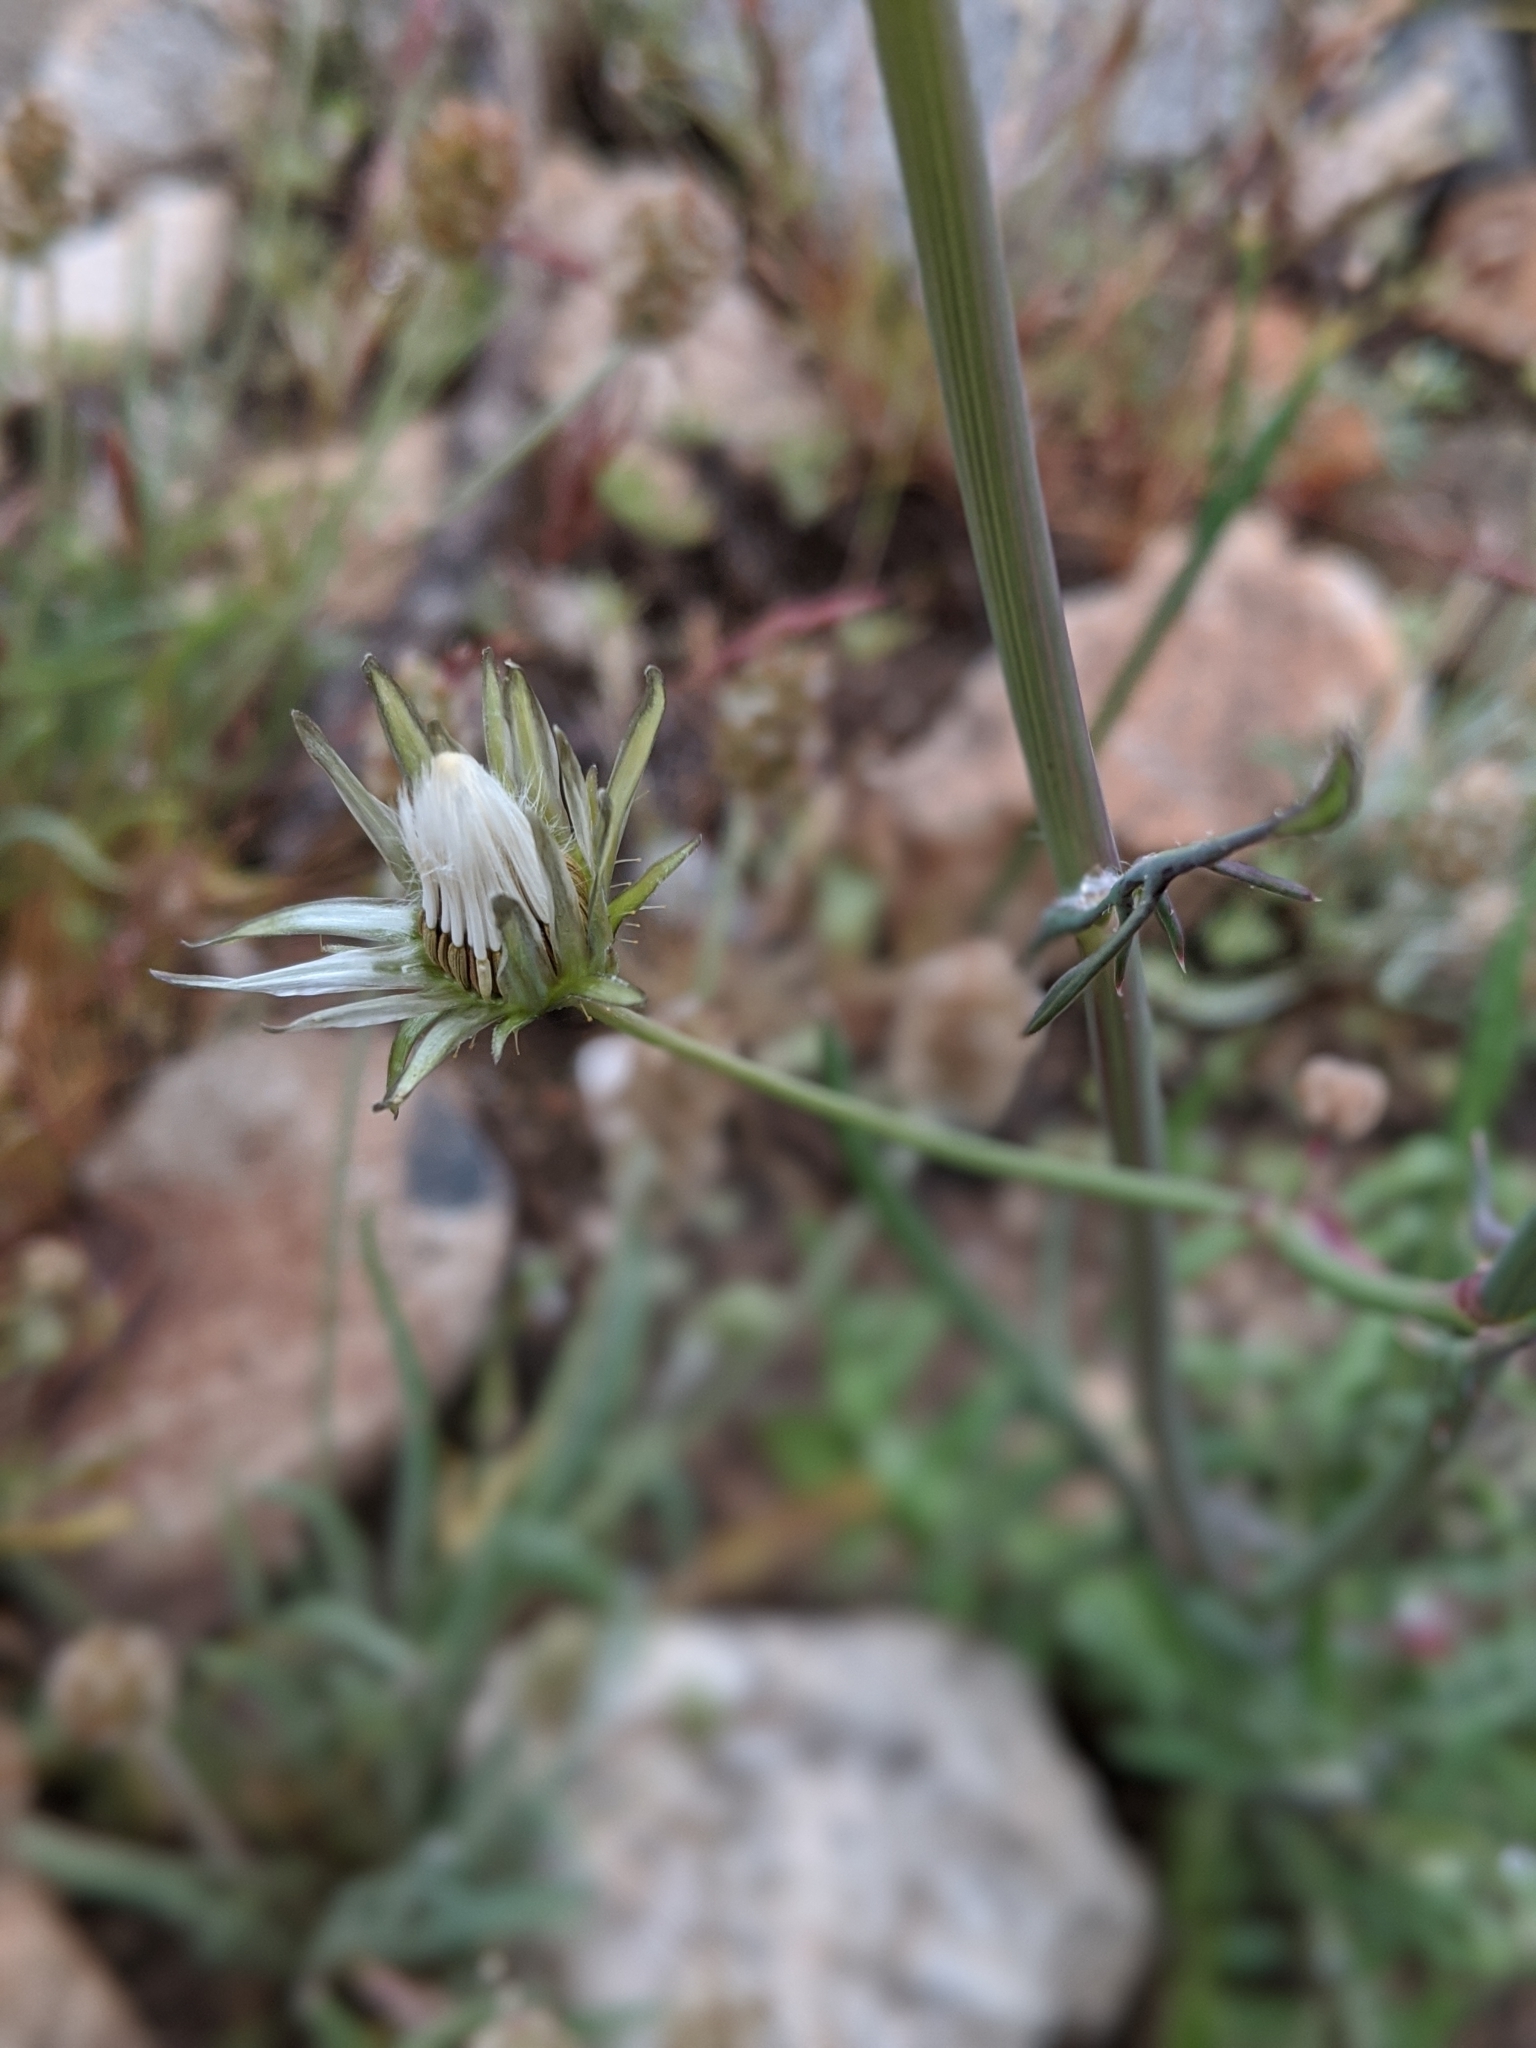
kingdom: Plantae
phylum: Tracheophyta
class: Magnoliopsida
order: Asterales
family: Asteraceae
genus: Sonchus
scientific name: Sonchus oleraceus
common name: Common sowthistle
